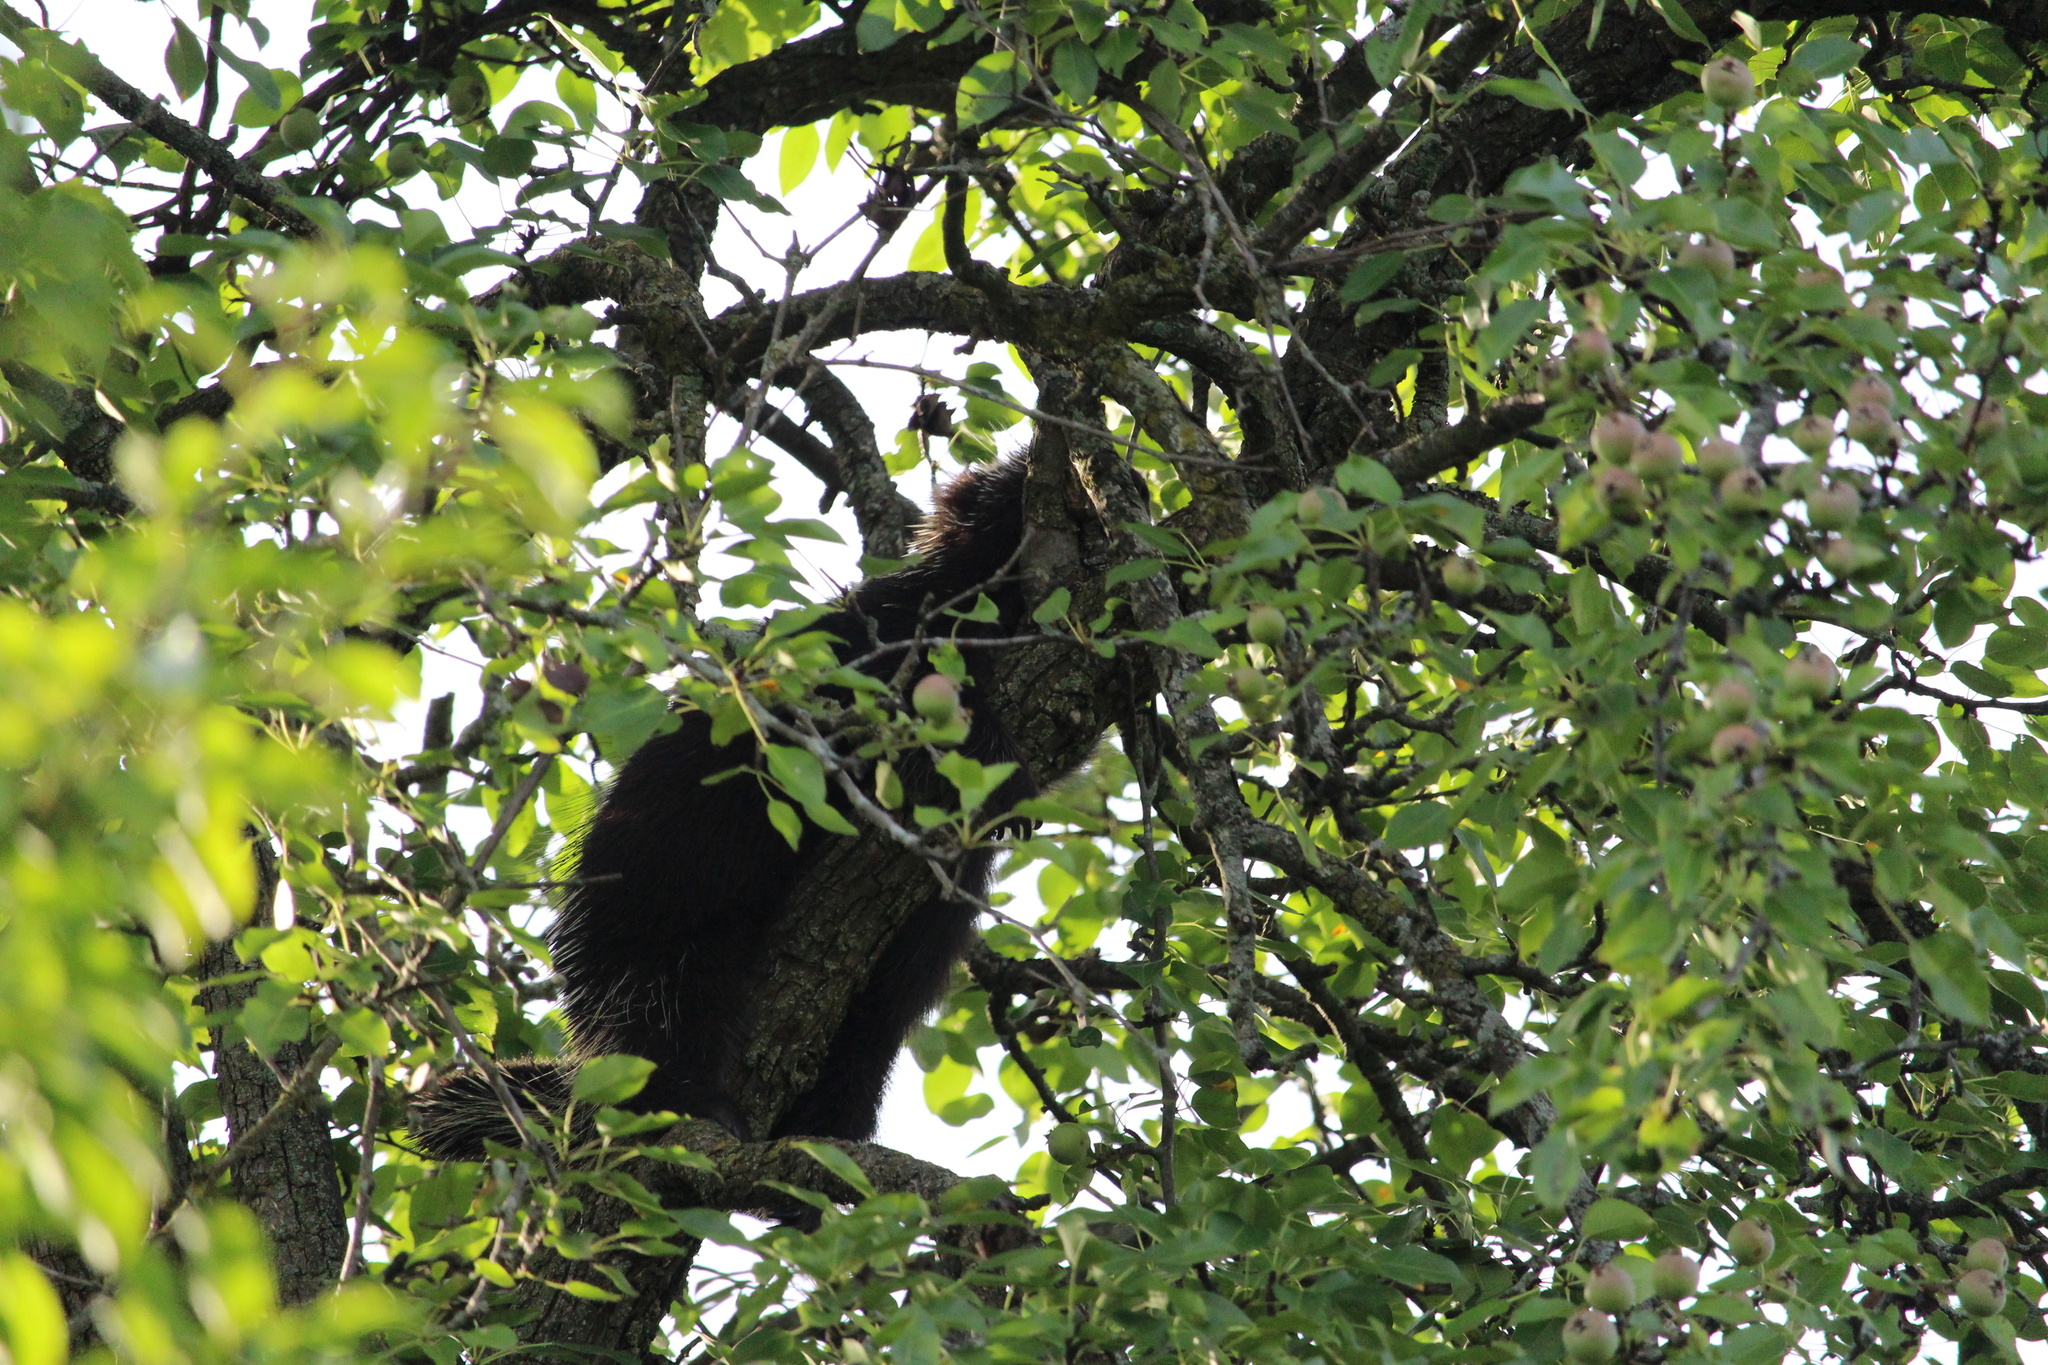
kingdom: Animalia
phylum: Chordata
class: Mammalia
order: Rodentia
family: Erethizontidae
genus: Erethizon
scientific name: Erethizon dorsatus
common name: North american porcupine
